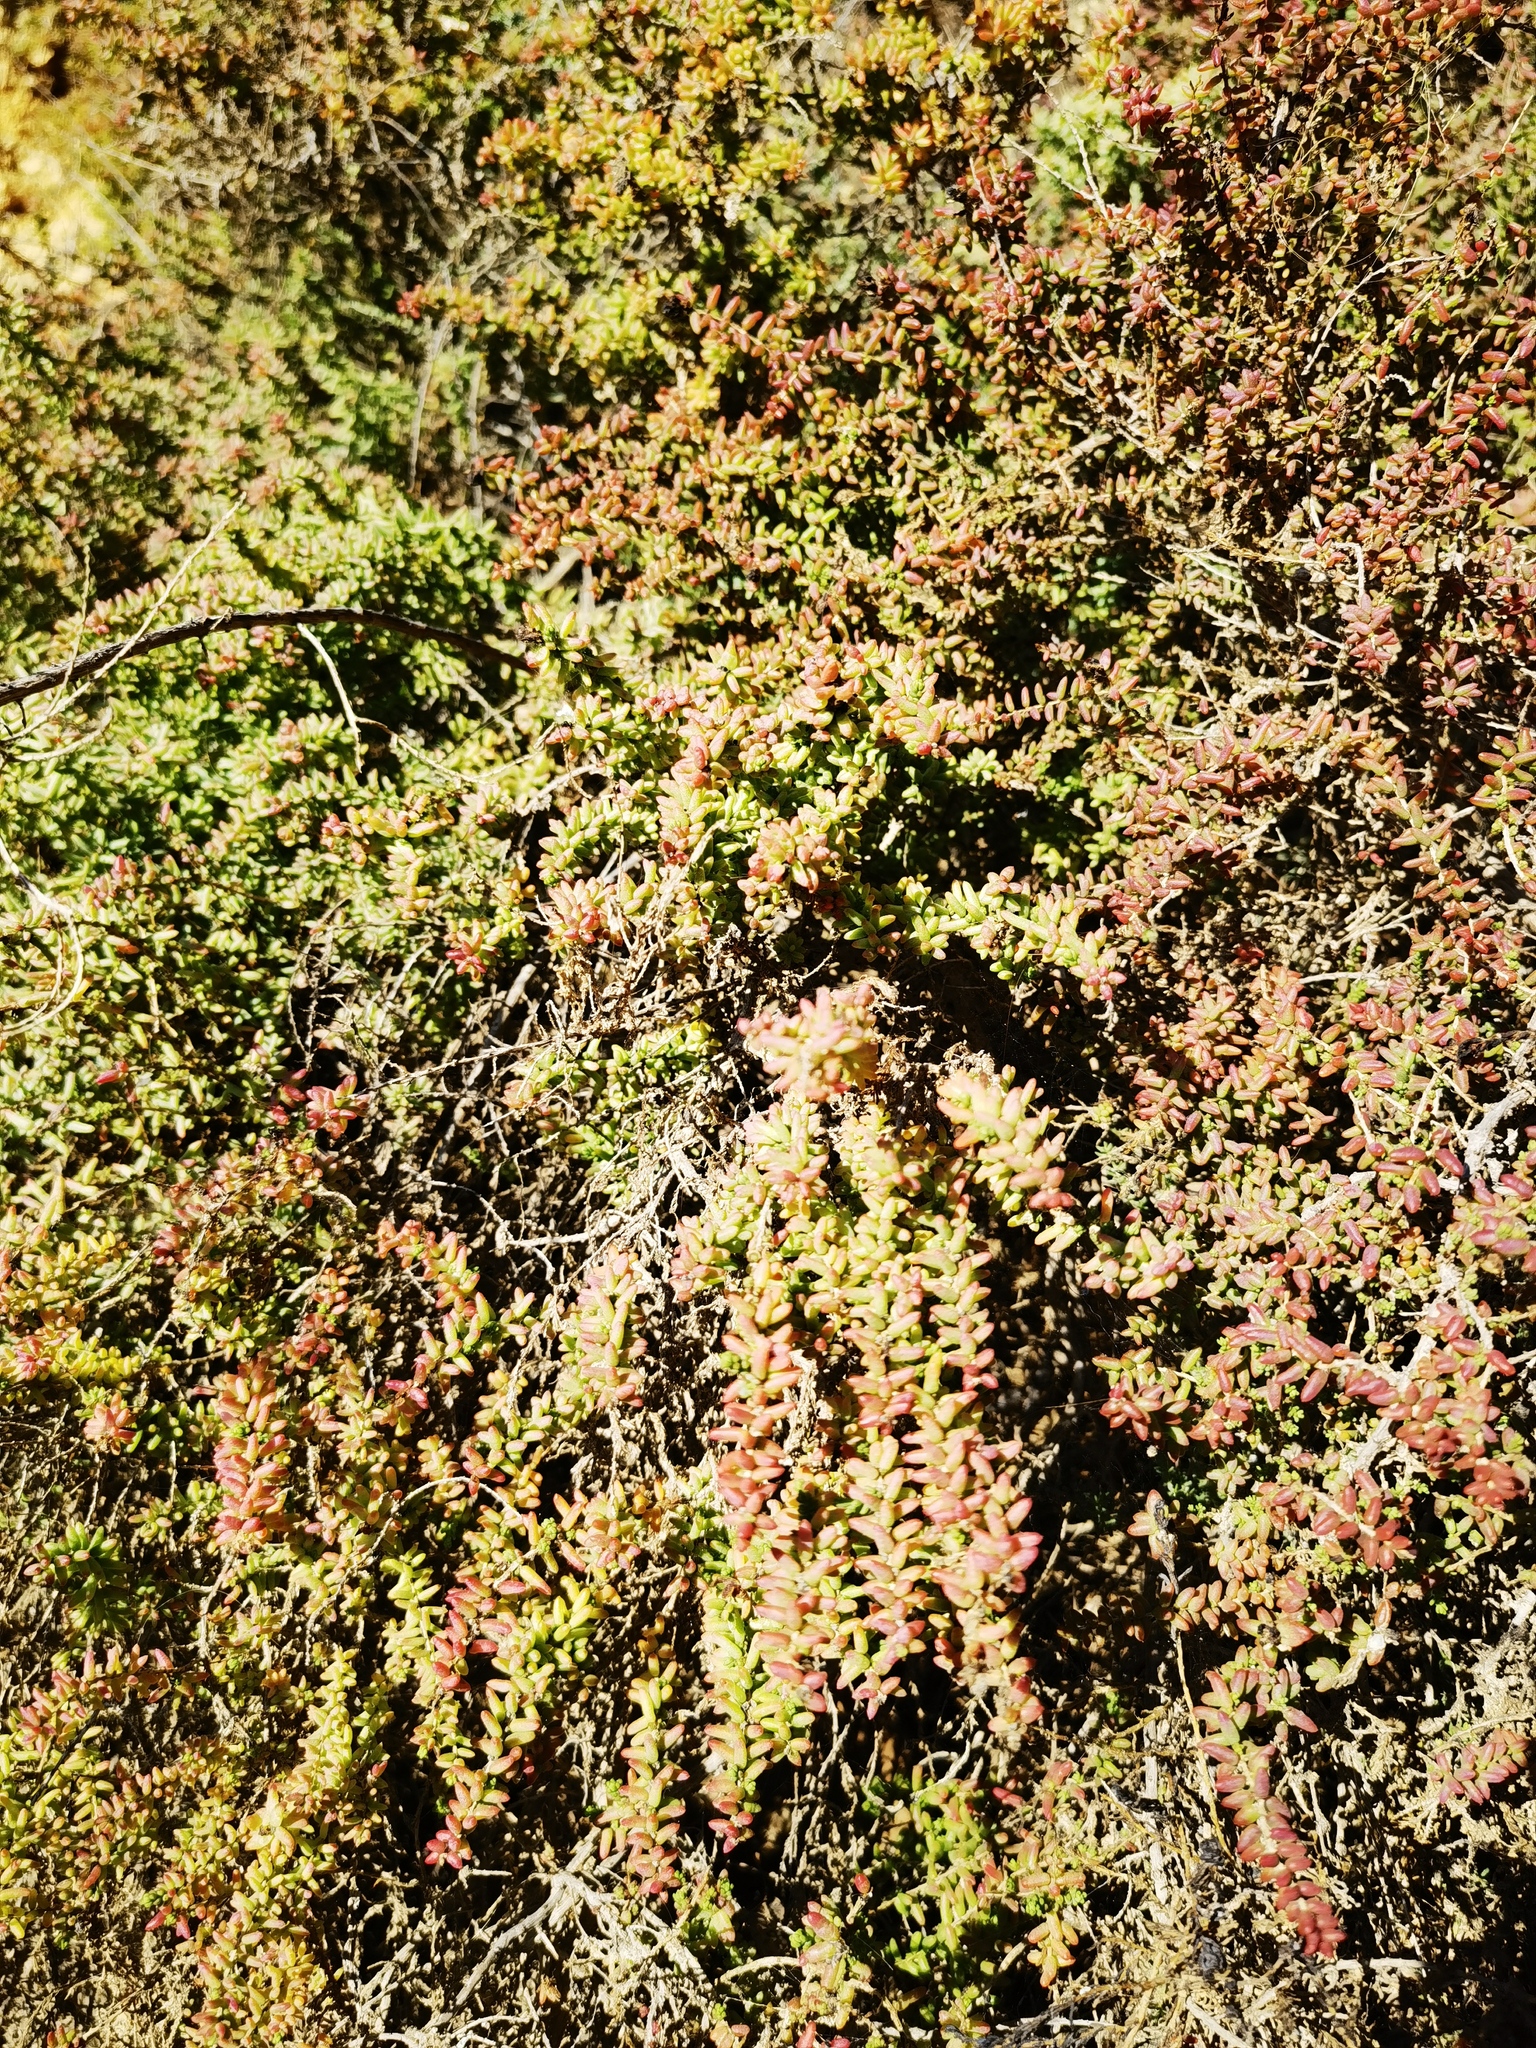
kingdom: Plantae
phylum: Tracheophyta
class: Magnoliopsida
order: Caryophyllales
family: Amaranthaceae
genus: Suaeda
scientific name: Suaeda vera
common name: Shrubby sea-blite
